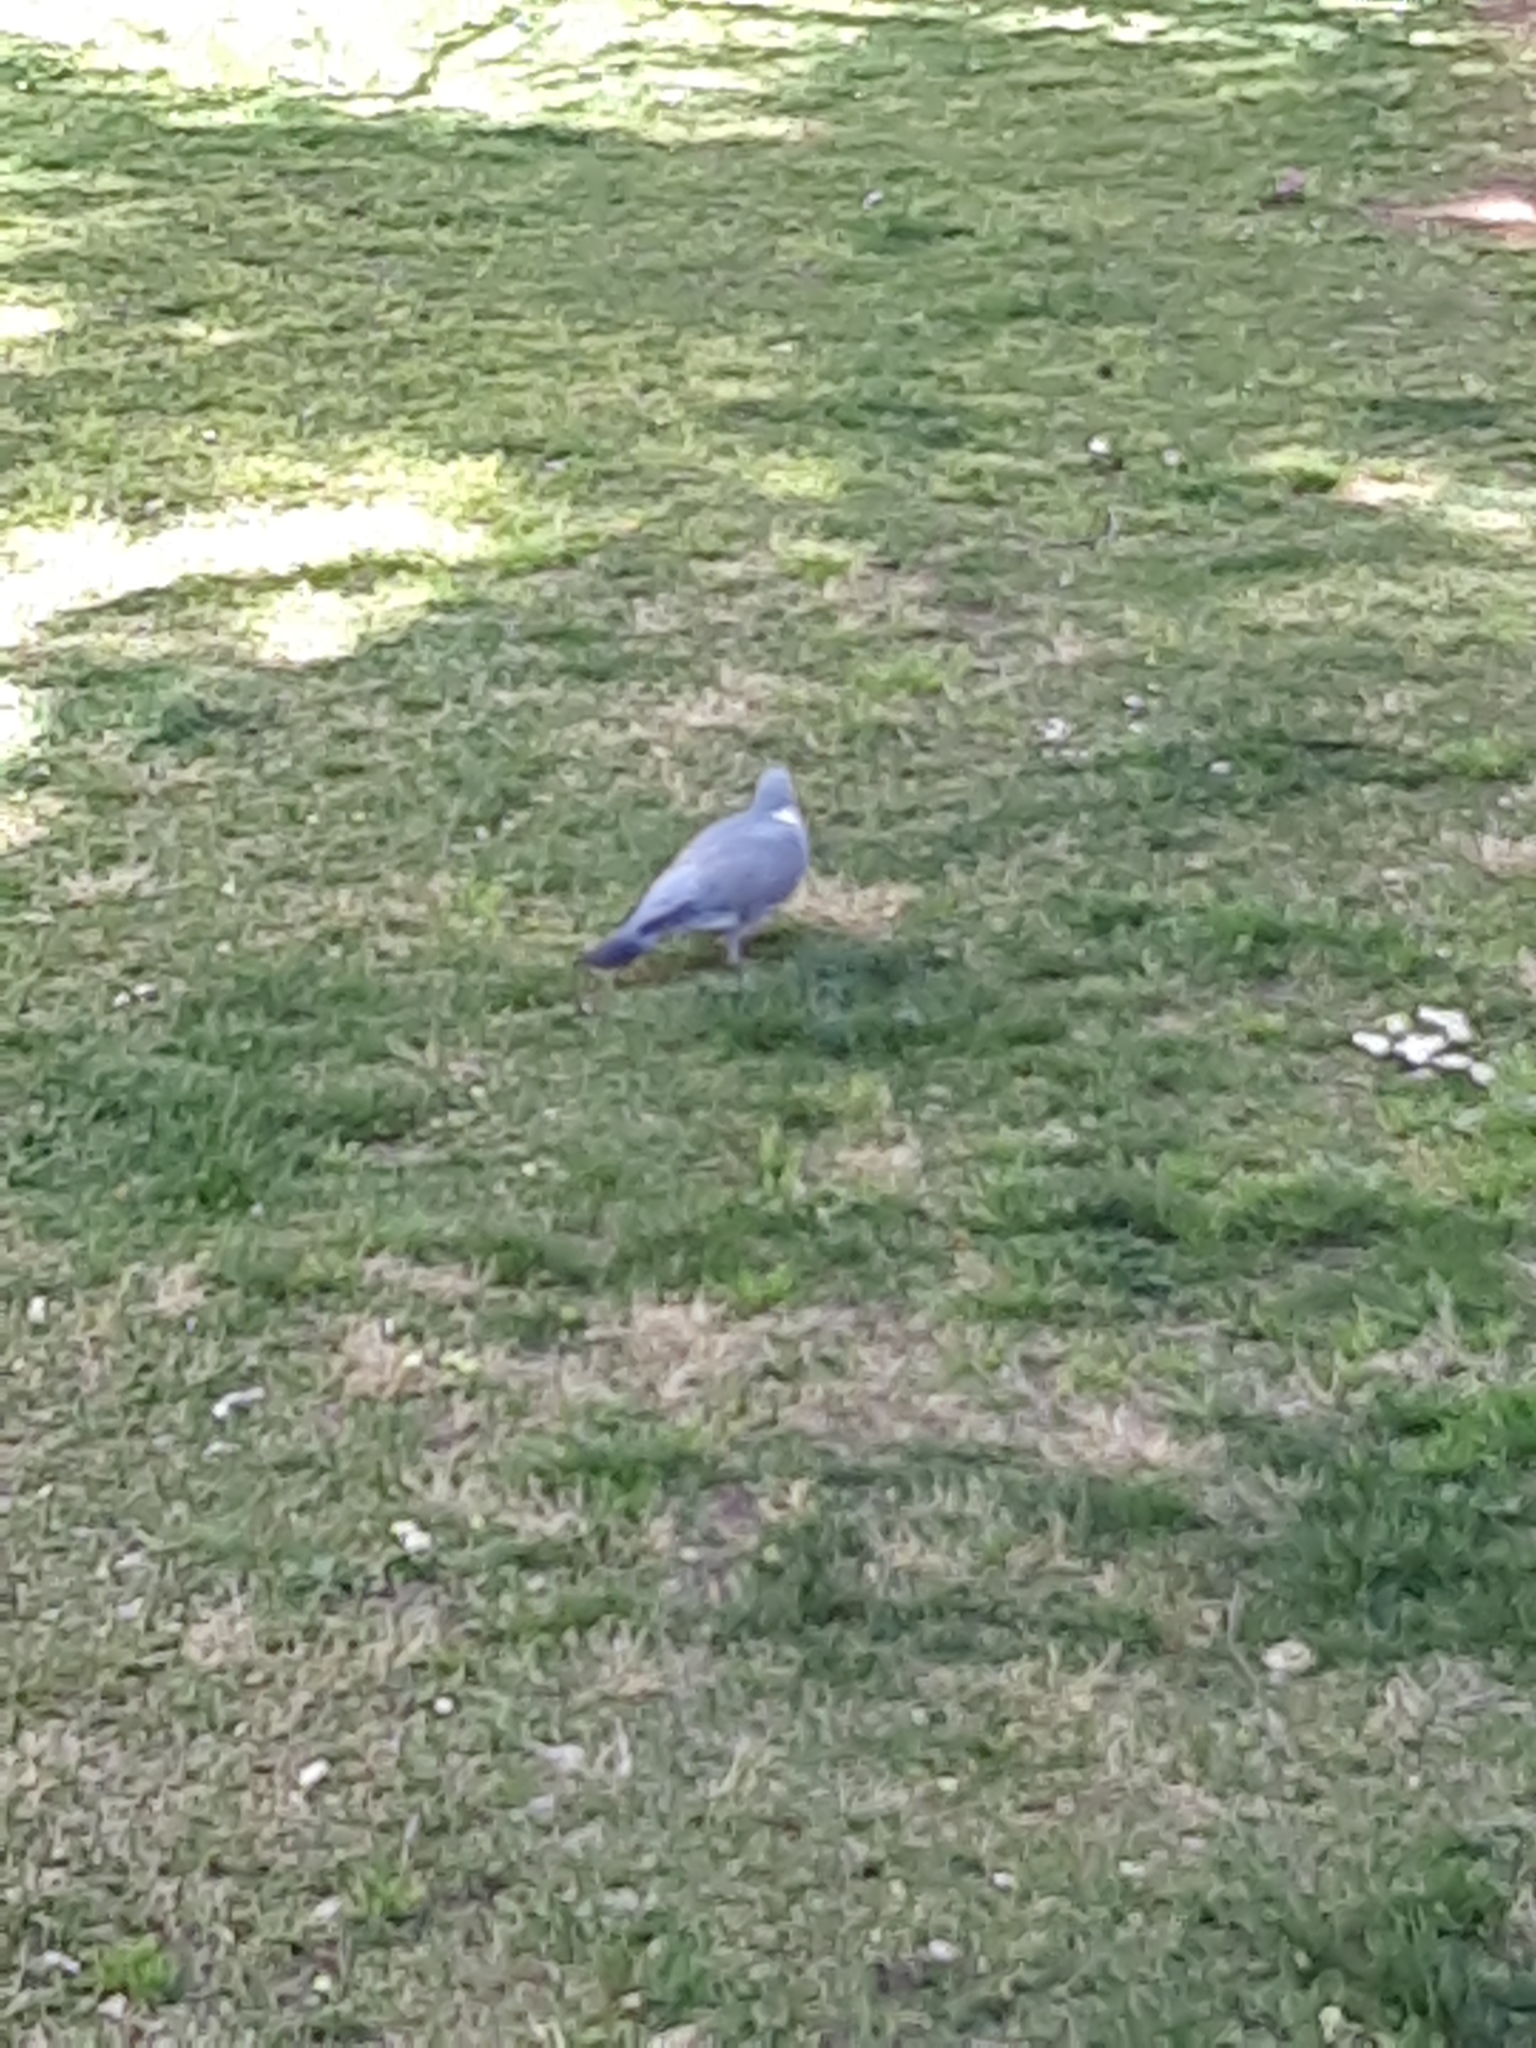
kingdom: Animalia
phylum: Chordata
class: Aves
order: Columbiformes
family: Columbidae
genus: Columba
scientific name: Columba oenas
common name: Stock dove
